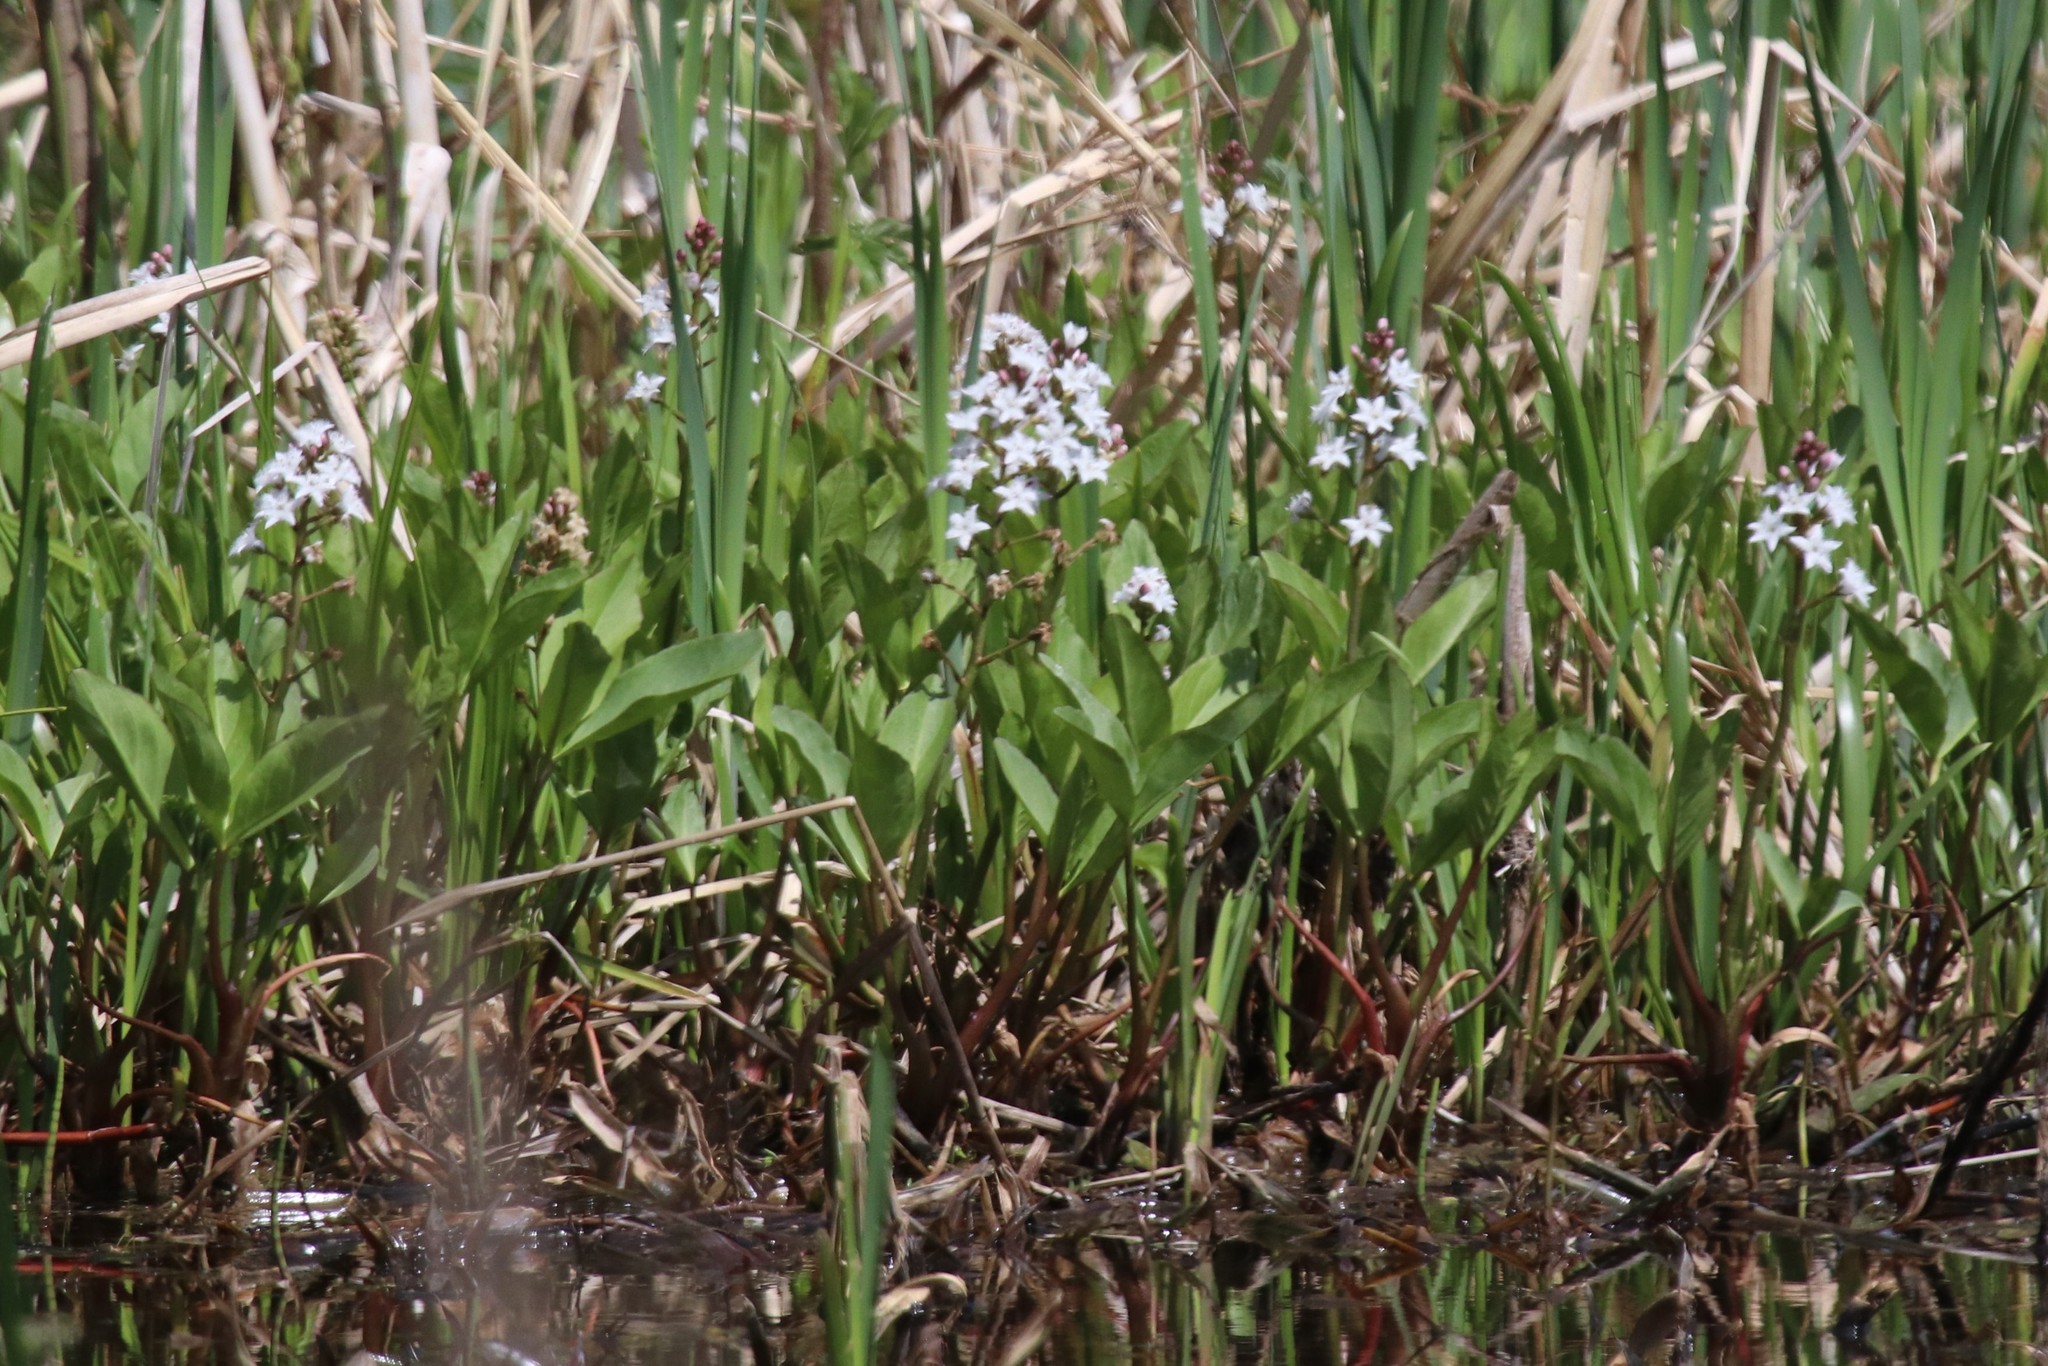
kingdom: Plantae
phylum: Tracheophyta
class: Magnoliopsida
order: Asterales
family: Menyanthaceae
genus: Menyanthes
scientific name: Menyanthes trifoliata
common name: Bogbean
